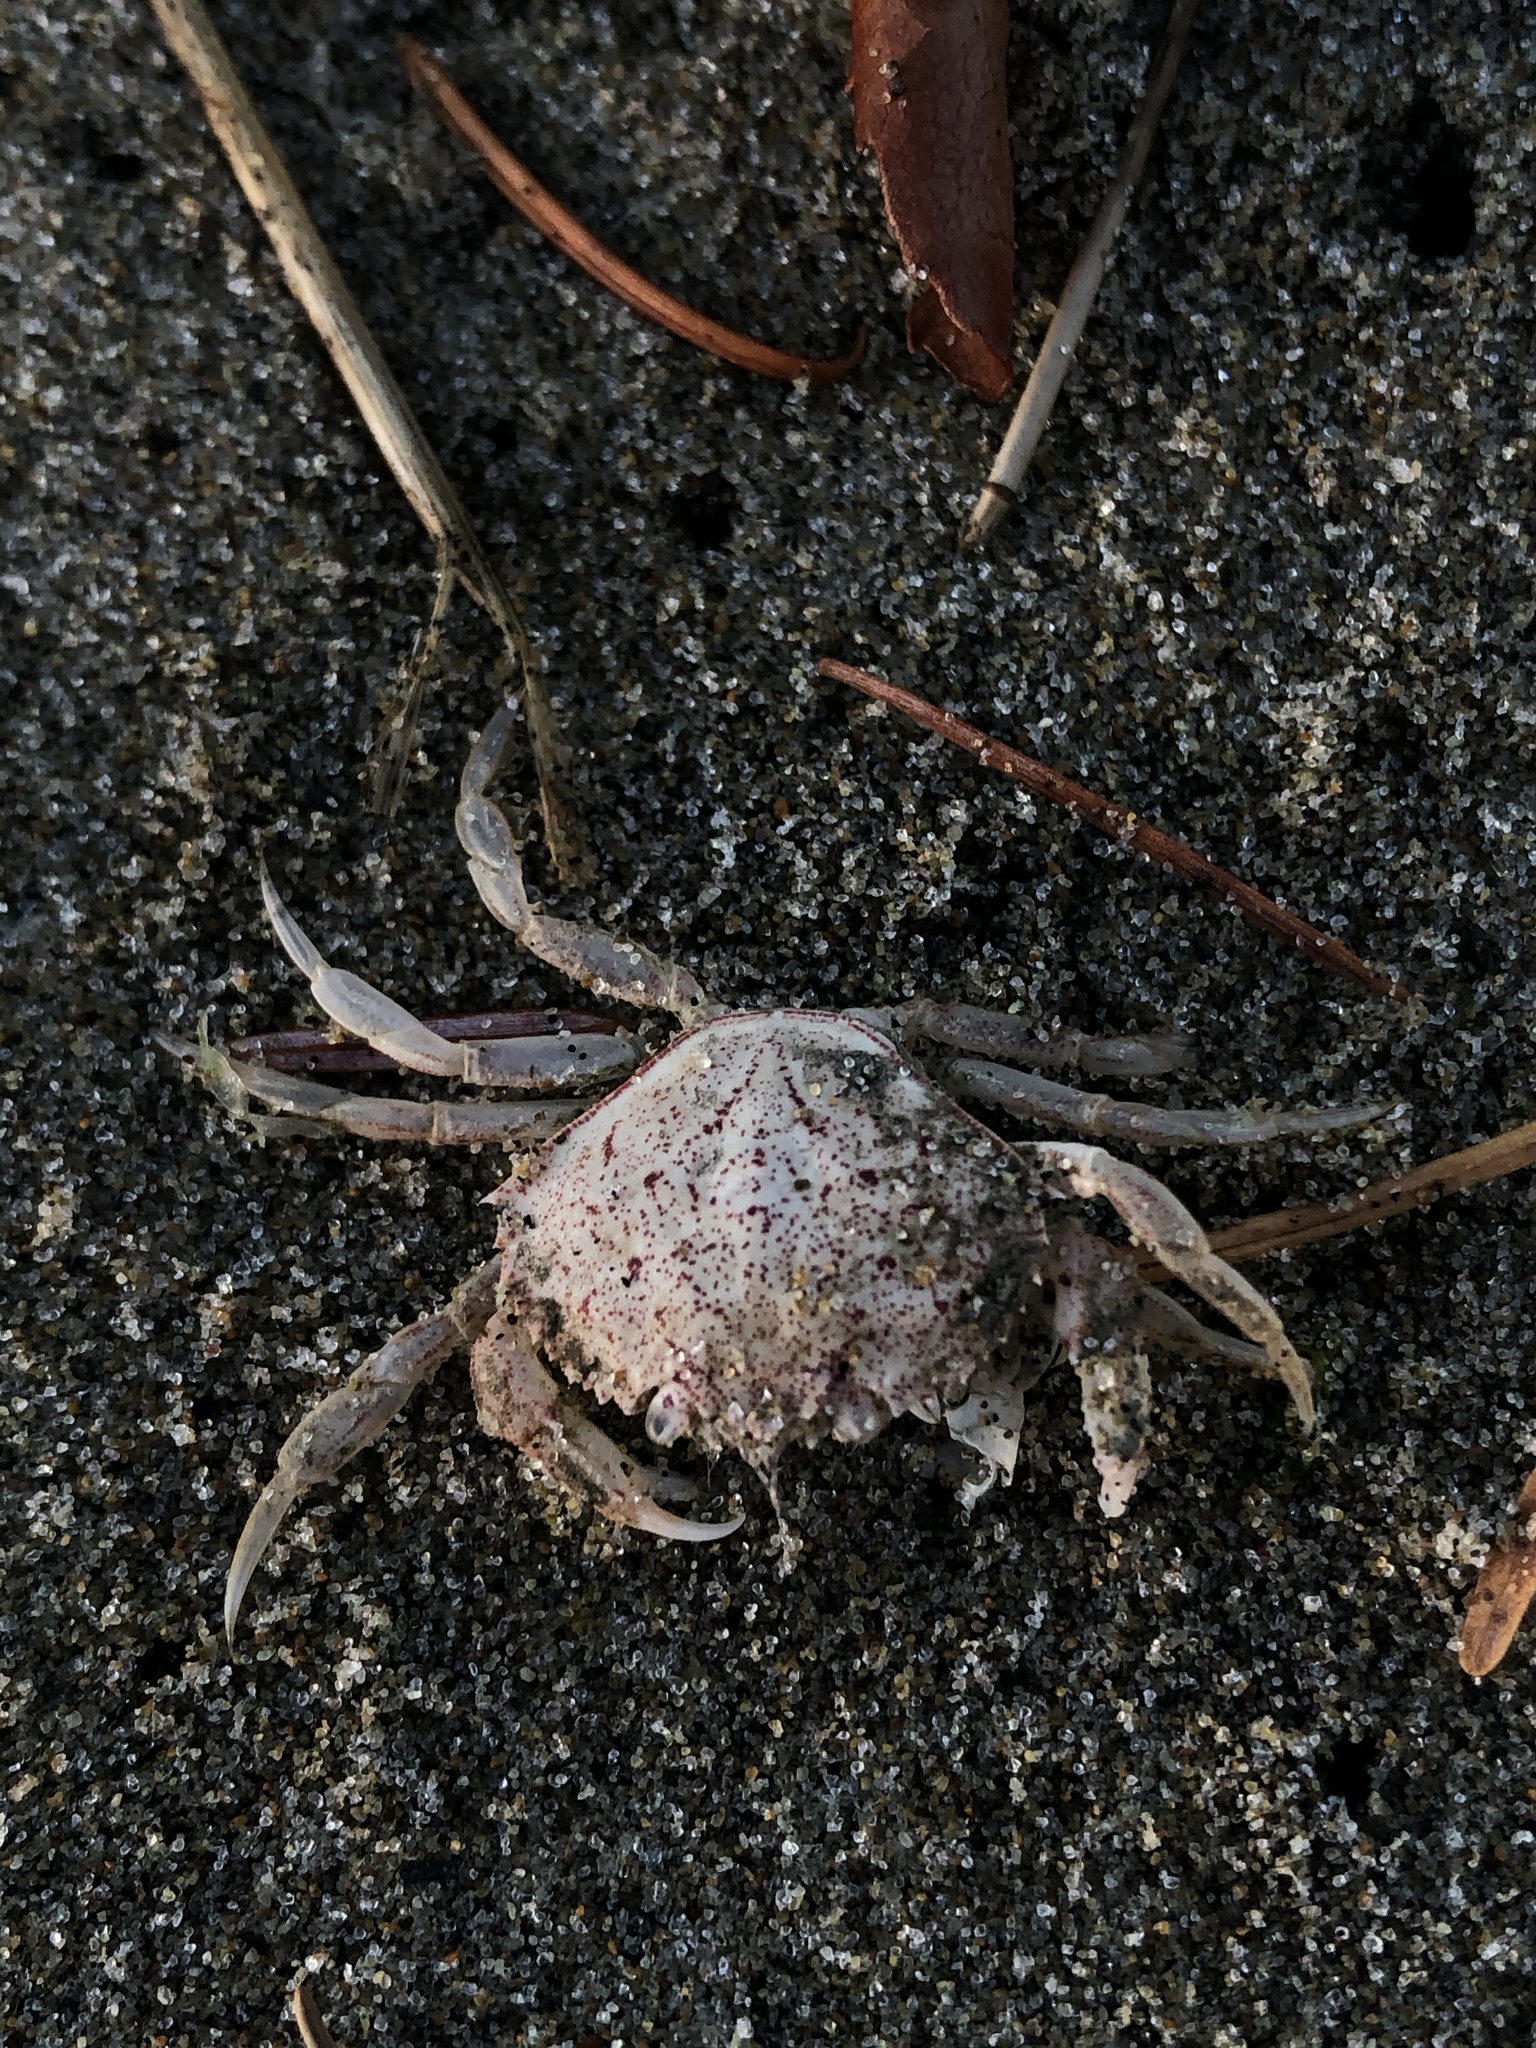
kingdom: Animalia
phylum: Arthropoda
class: Malacostraca
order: Decapoda
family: Cancridae
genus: Metacarcinus
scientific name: Metacarcinus magister
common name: Californian crab
